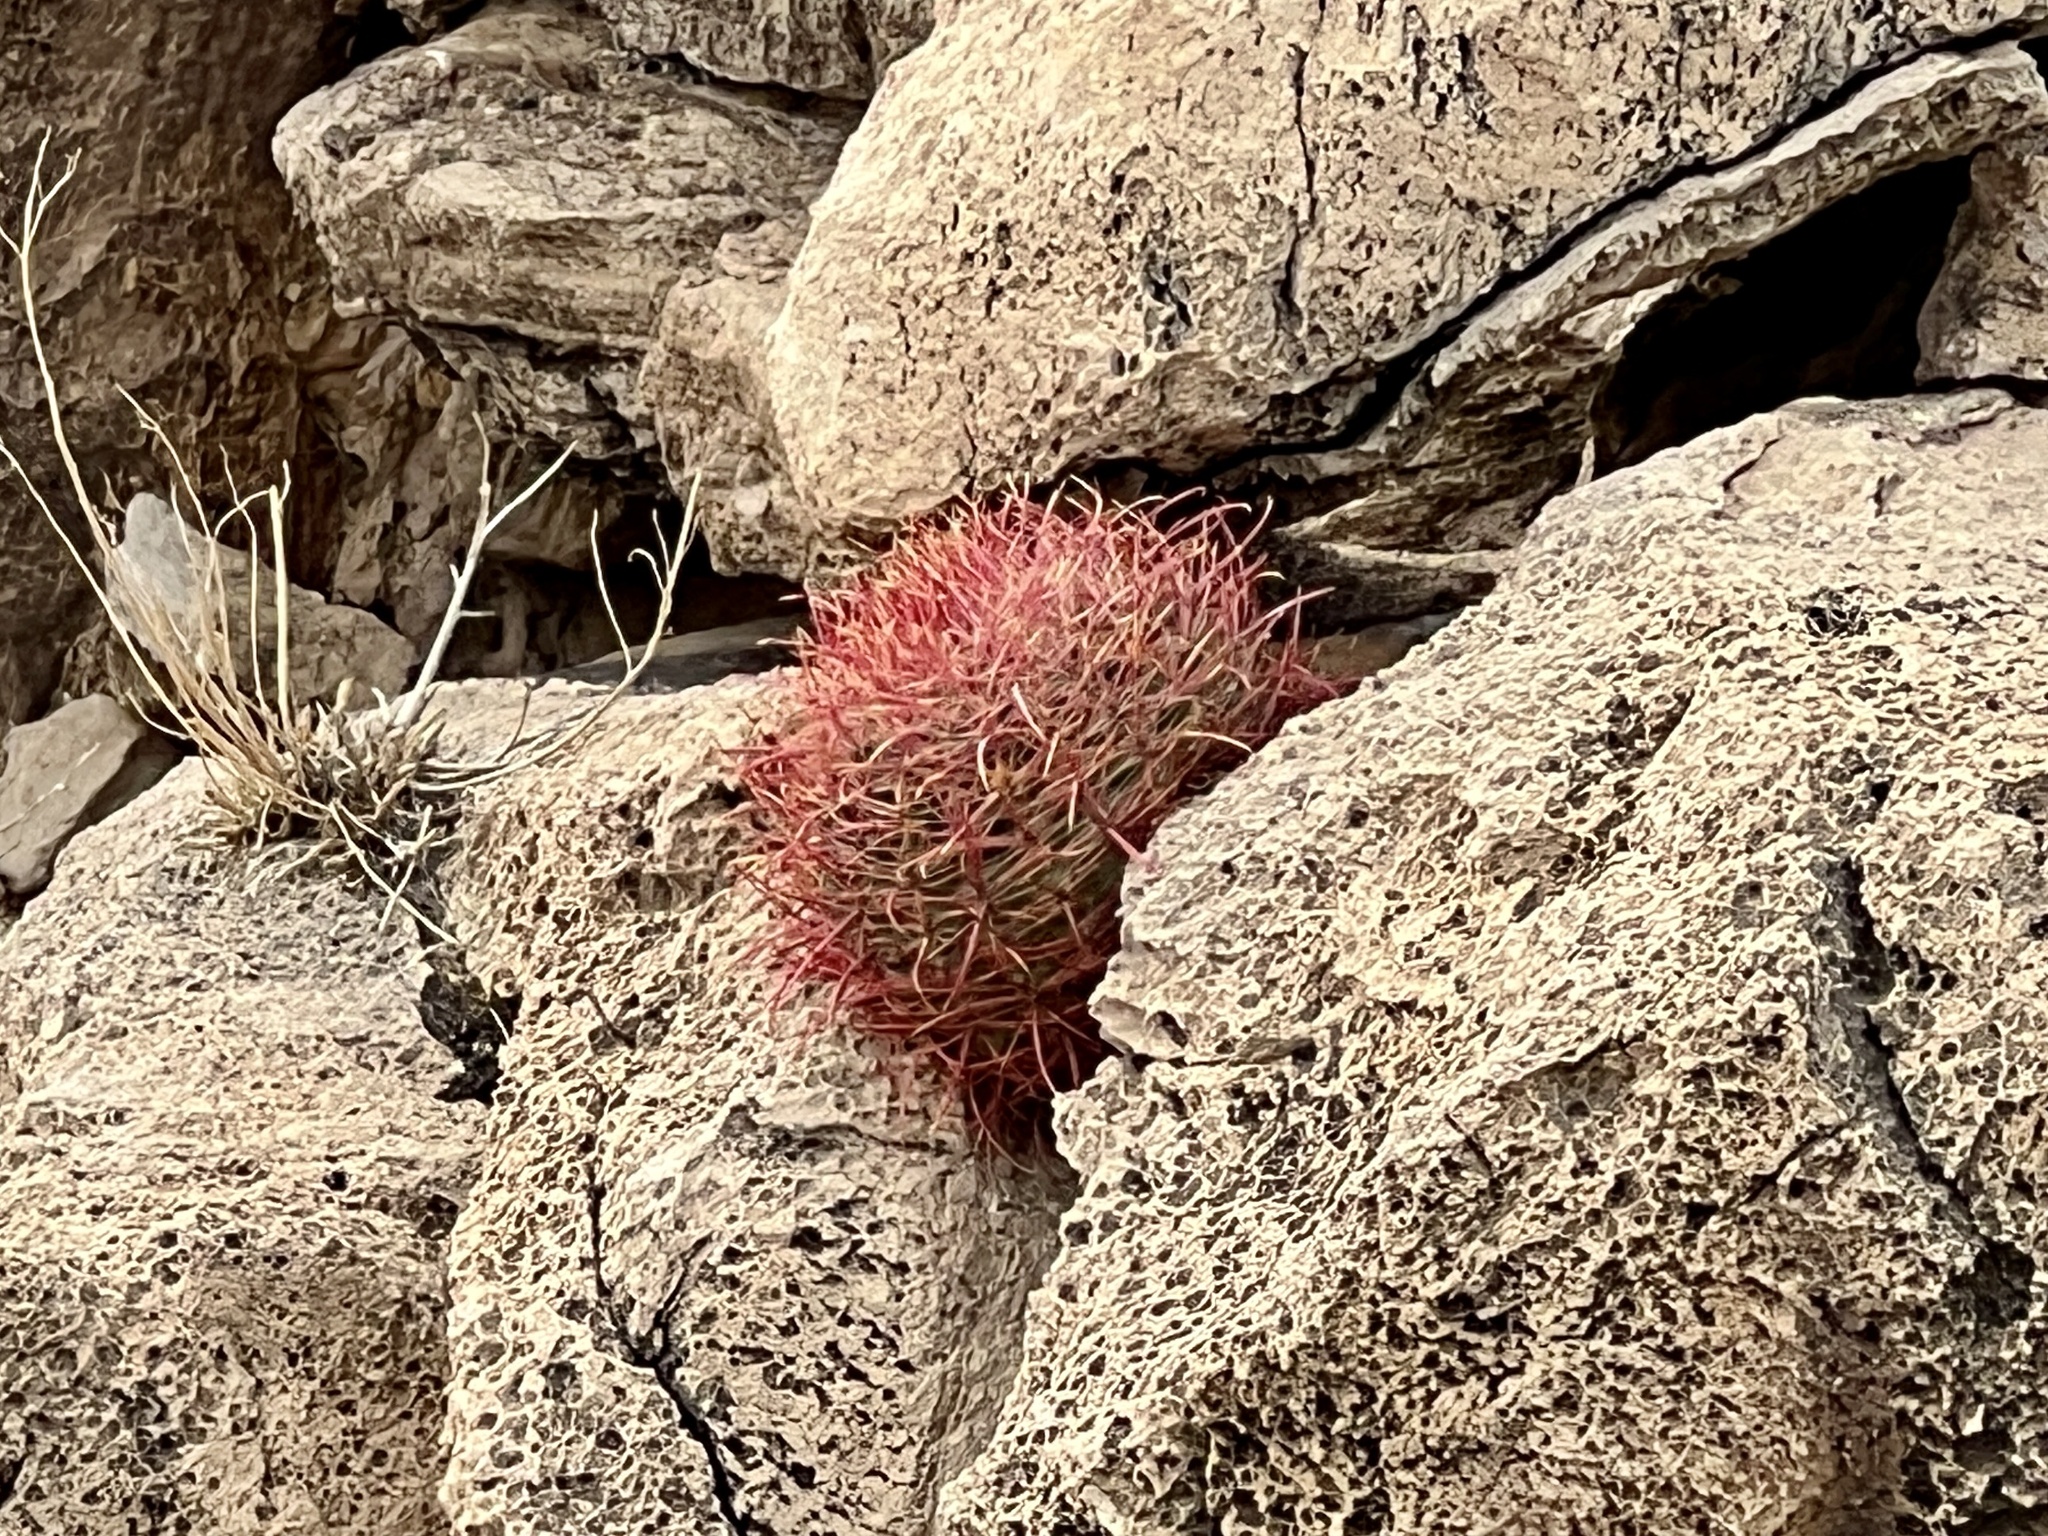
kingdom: Plantae
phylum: Tracheophyta
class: Magnoliopsida
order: Caryophyllales
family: Cactaceae
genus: Ferocactus
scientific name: Ferocactus cylindraceus
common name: California barrel cactus
